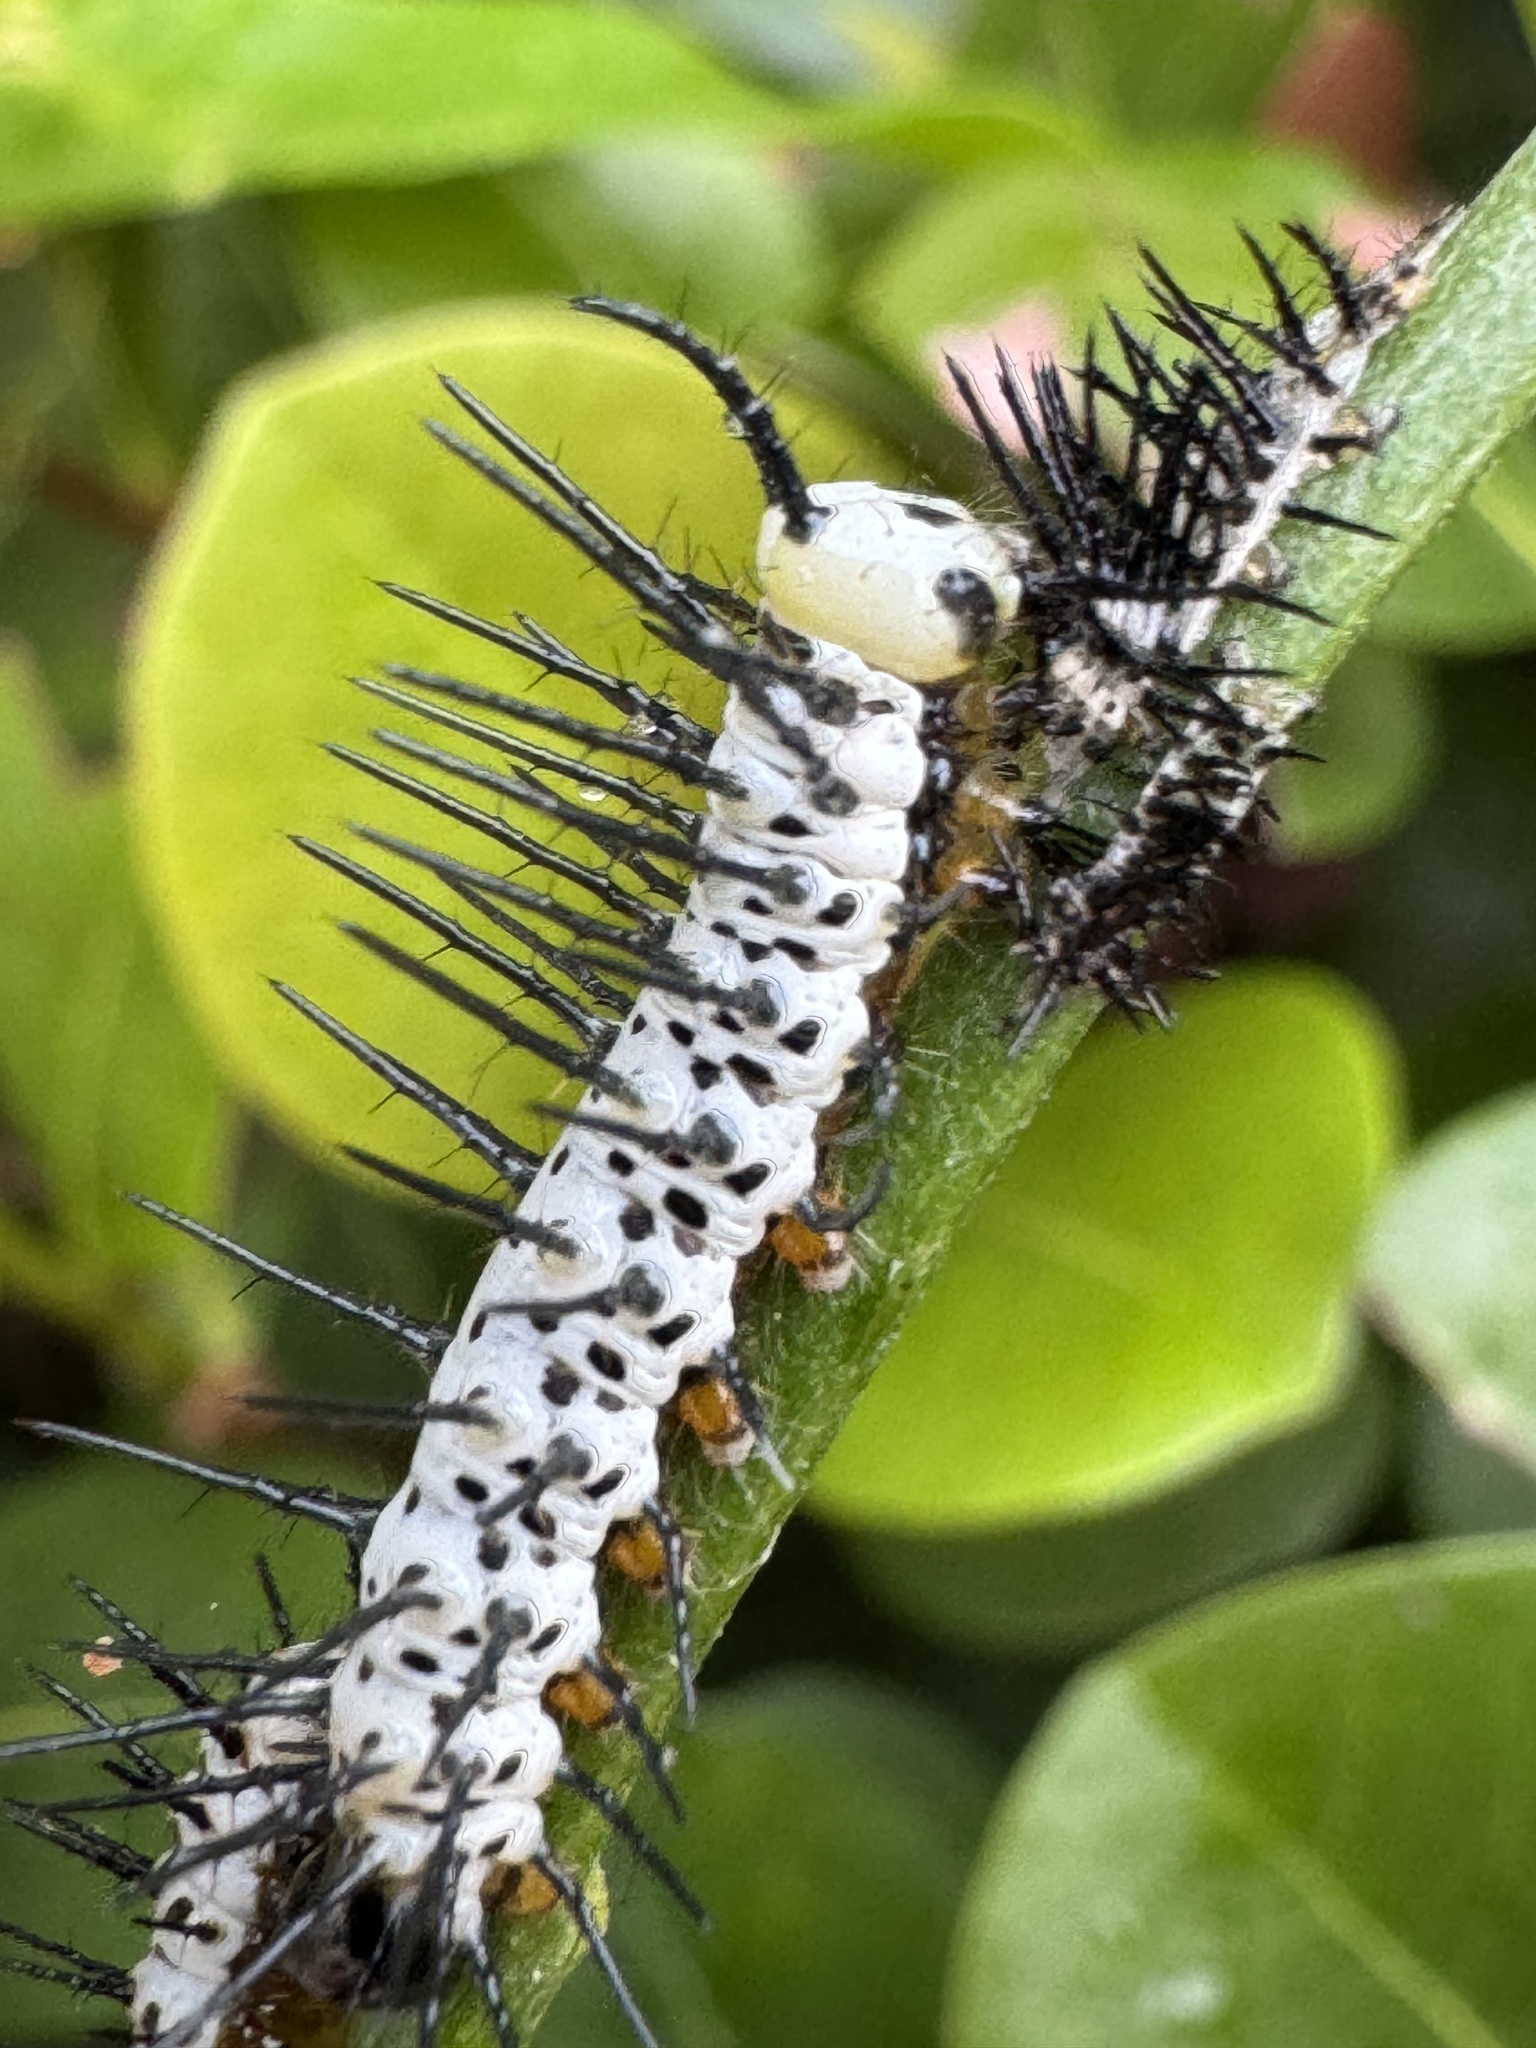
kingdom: Animalia
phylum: Arthropoda
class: Insecta
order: Lepidoptera
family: Nymphalidae
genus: Heliconius
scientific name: Heliconius charithonia
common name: Zebra long wing
